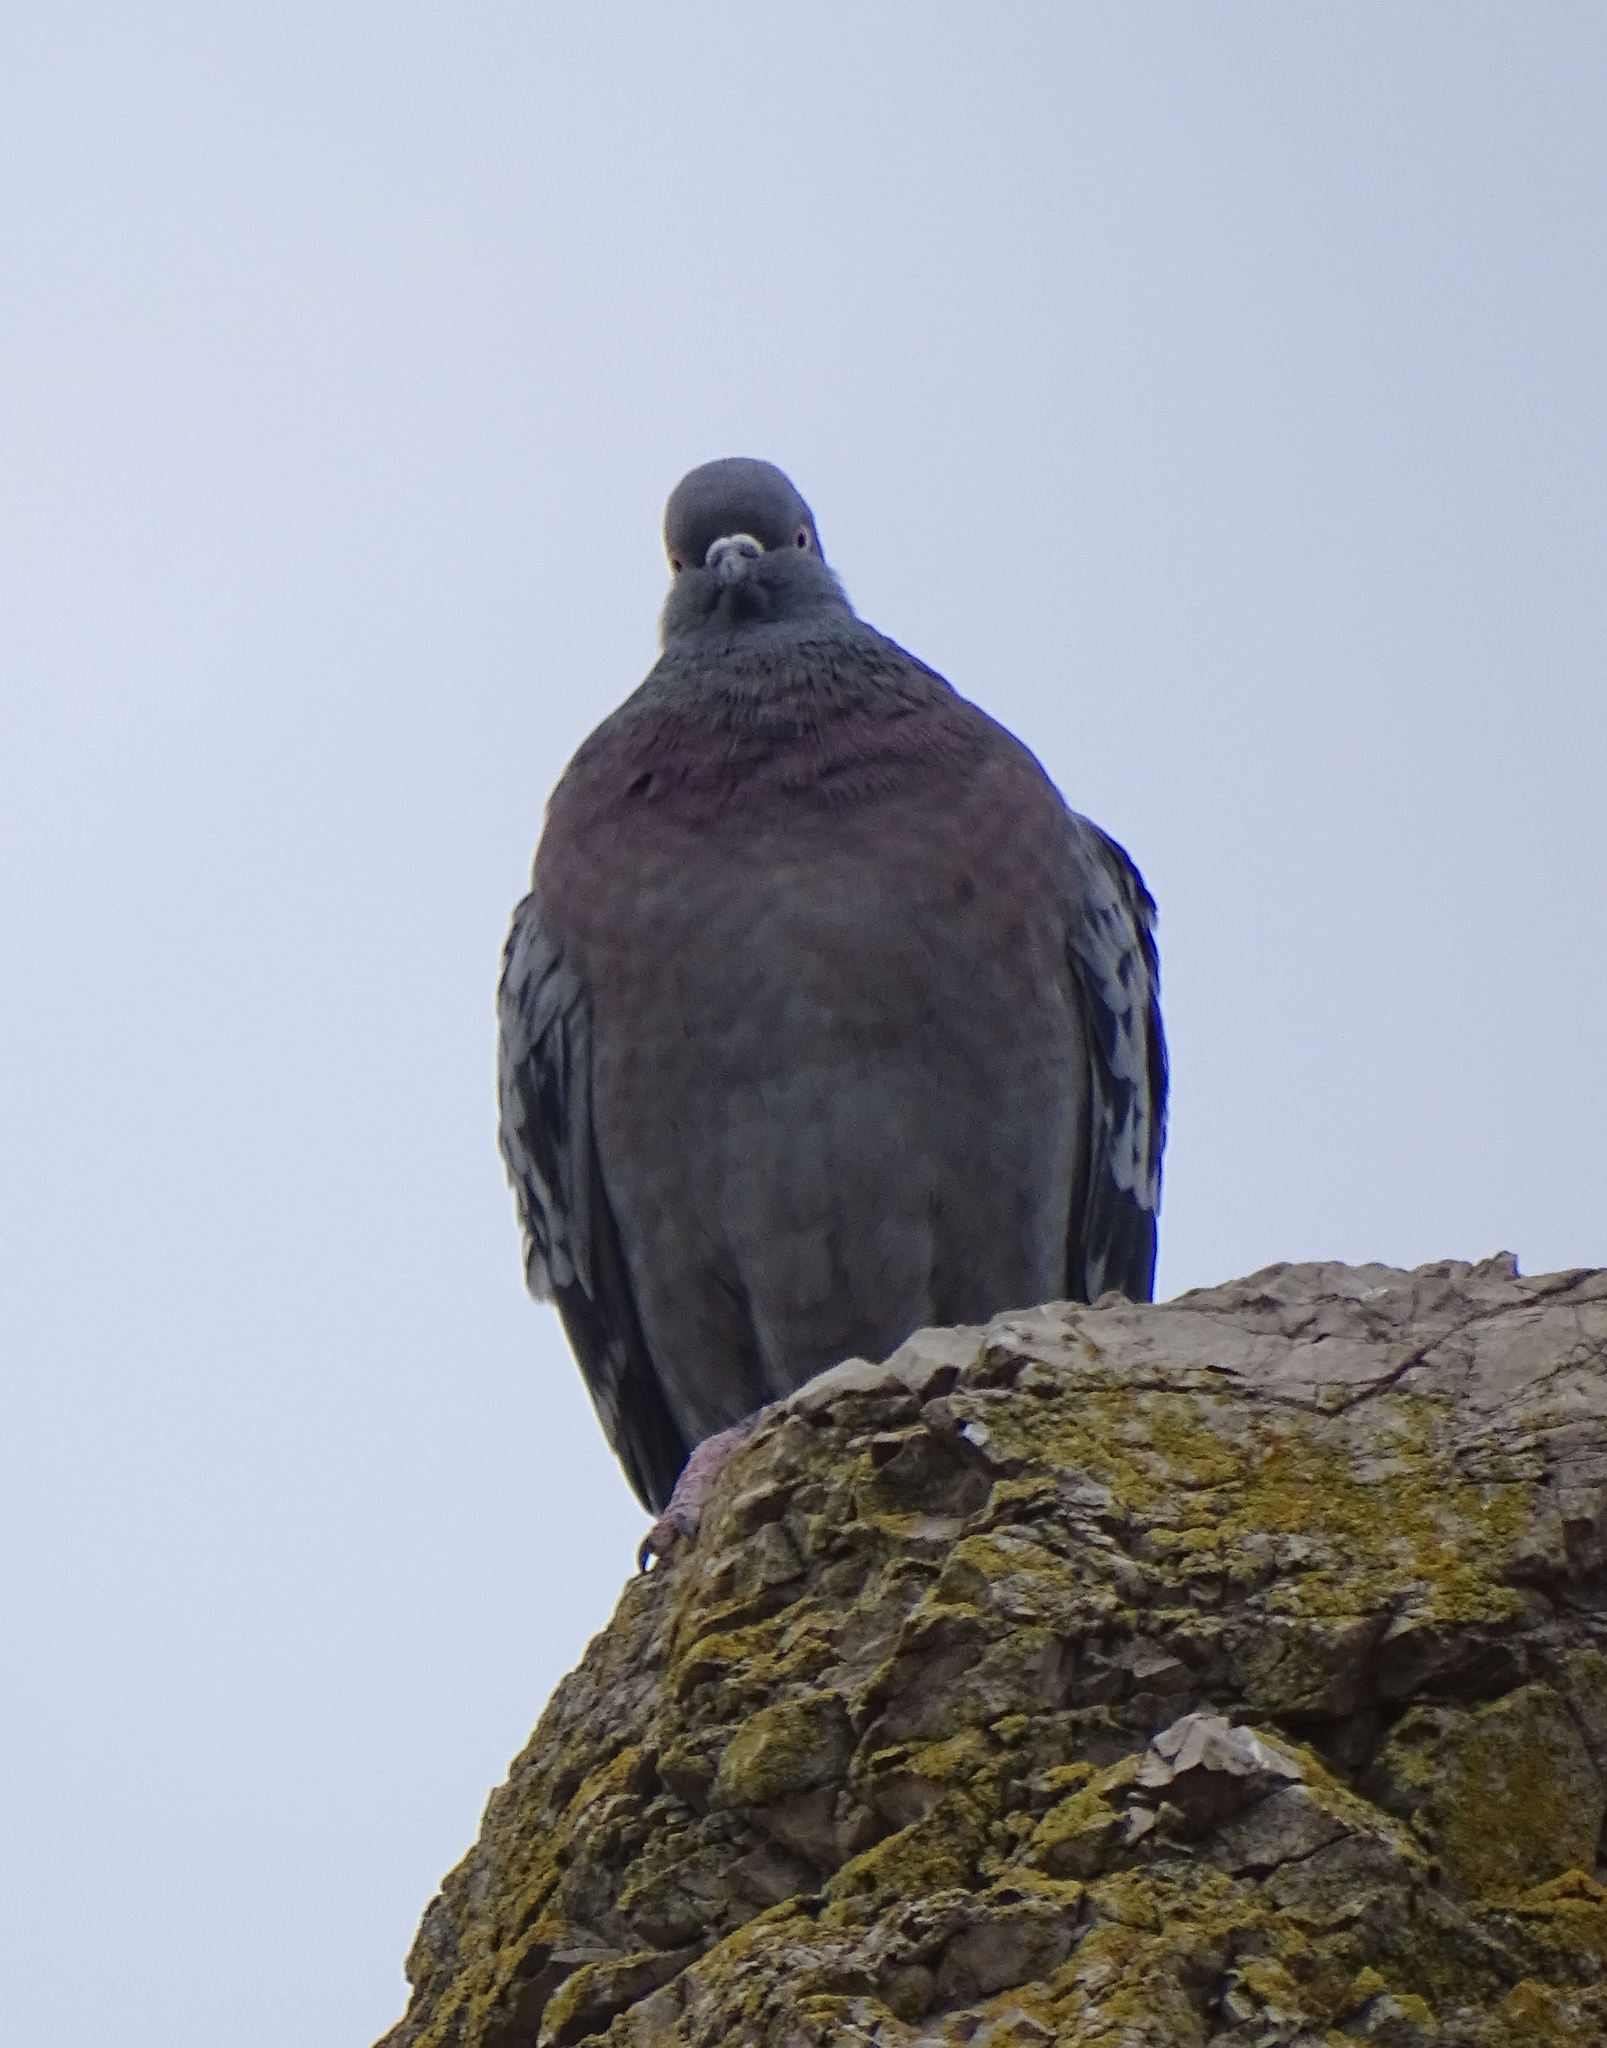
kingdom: Animalia
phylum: Chordata
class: Aves
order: Columbiformes
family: Columbidae
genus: Columba
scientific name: Columba livia
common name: Rock pigeon
